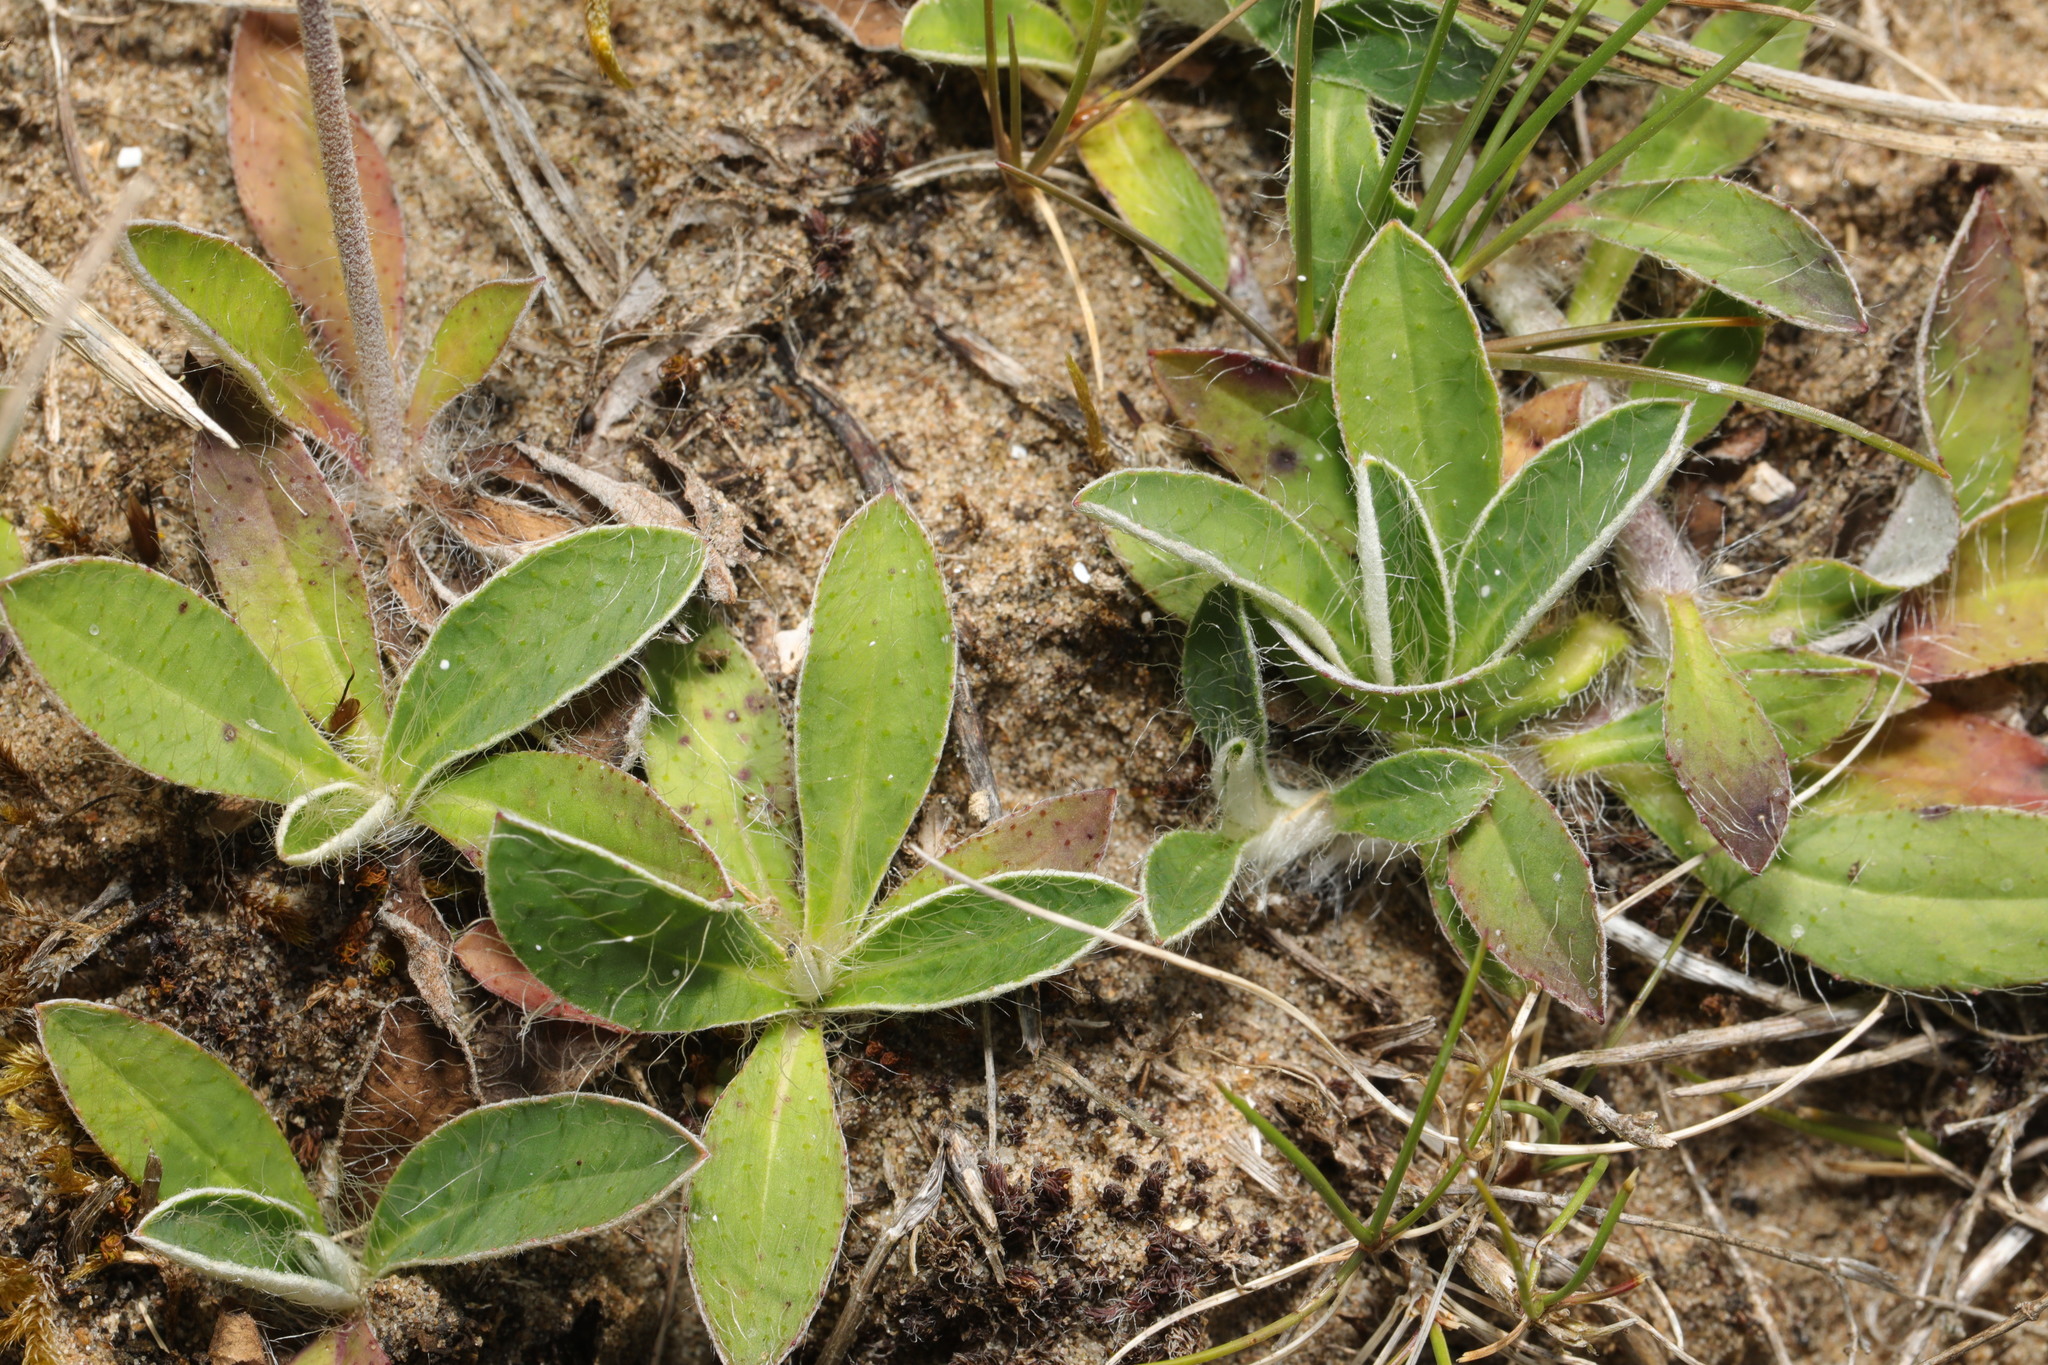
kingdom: Plantae
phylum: Tracheophyta
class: Magnoliopsida
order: Asterales
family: Asteraceae
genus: Pilosella
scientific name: Pilosella officinarum
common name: Mouse-ear hawkweed
